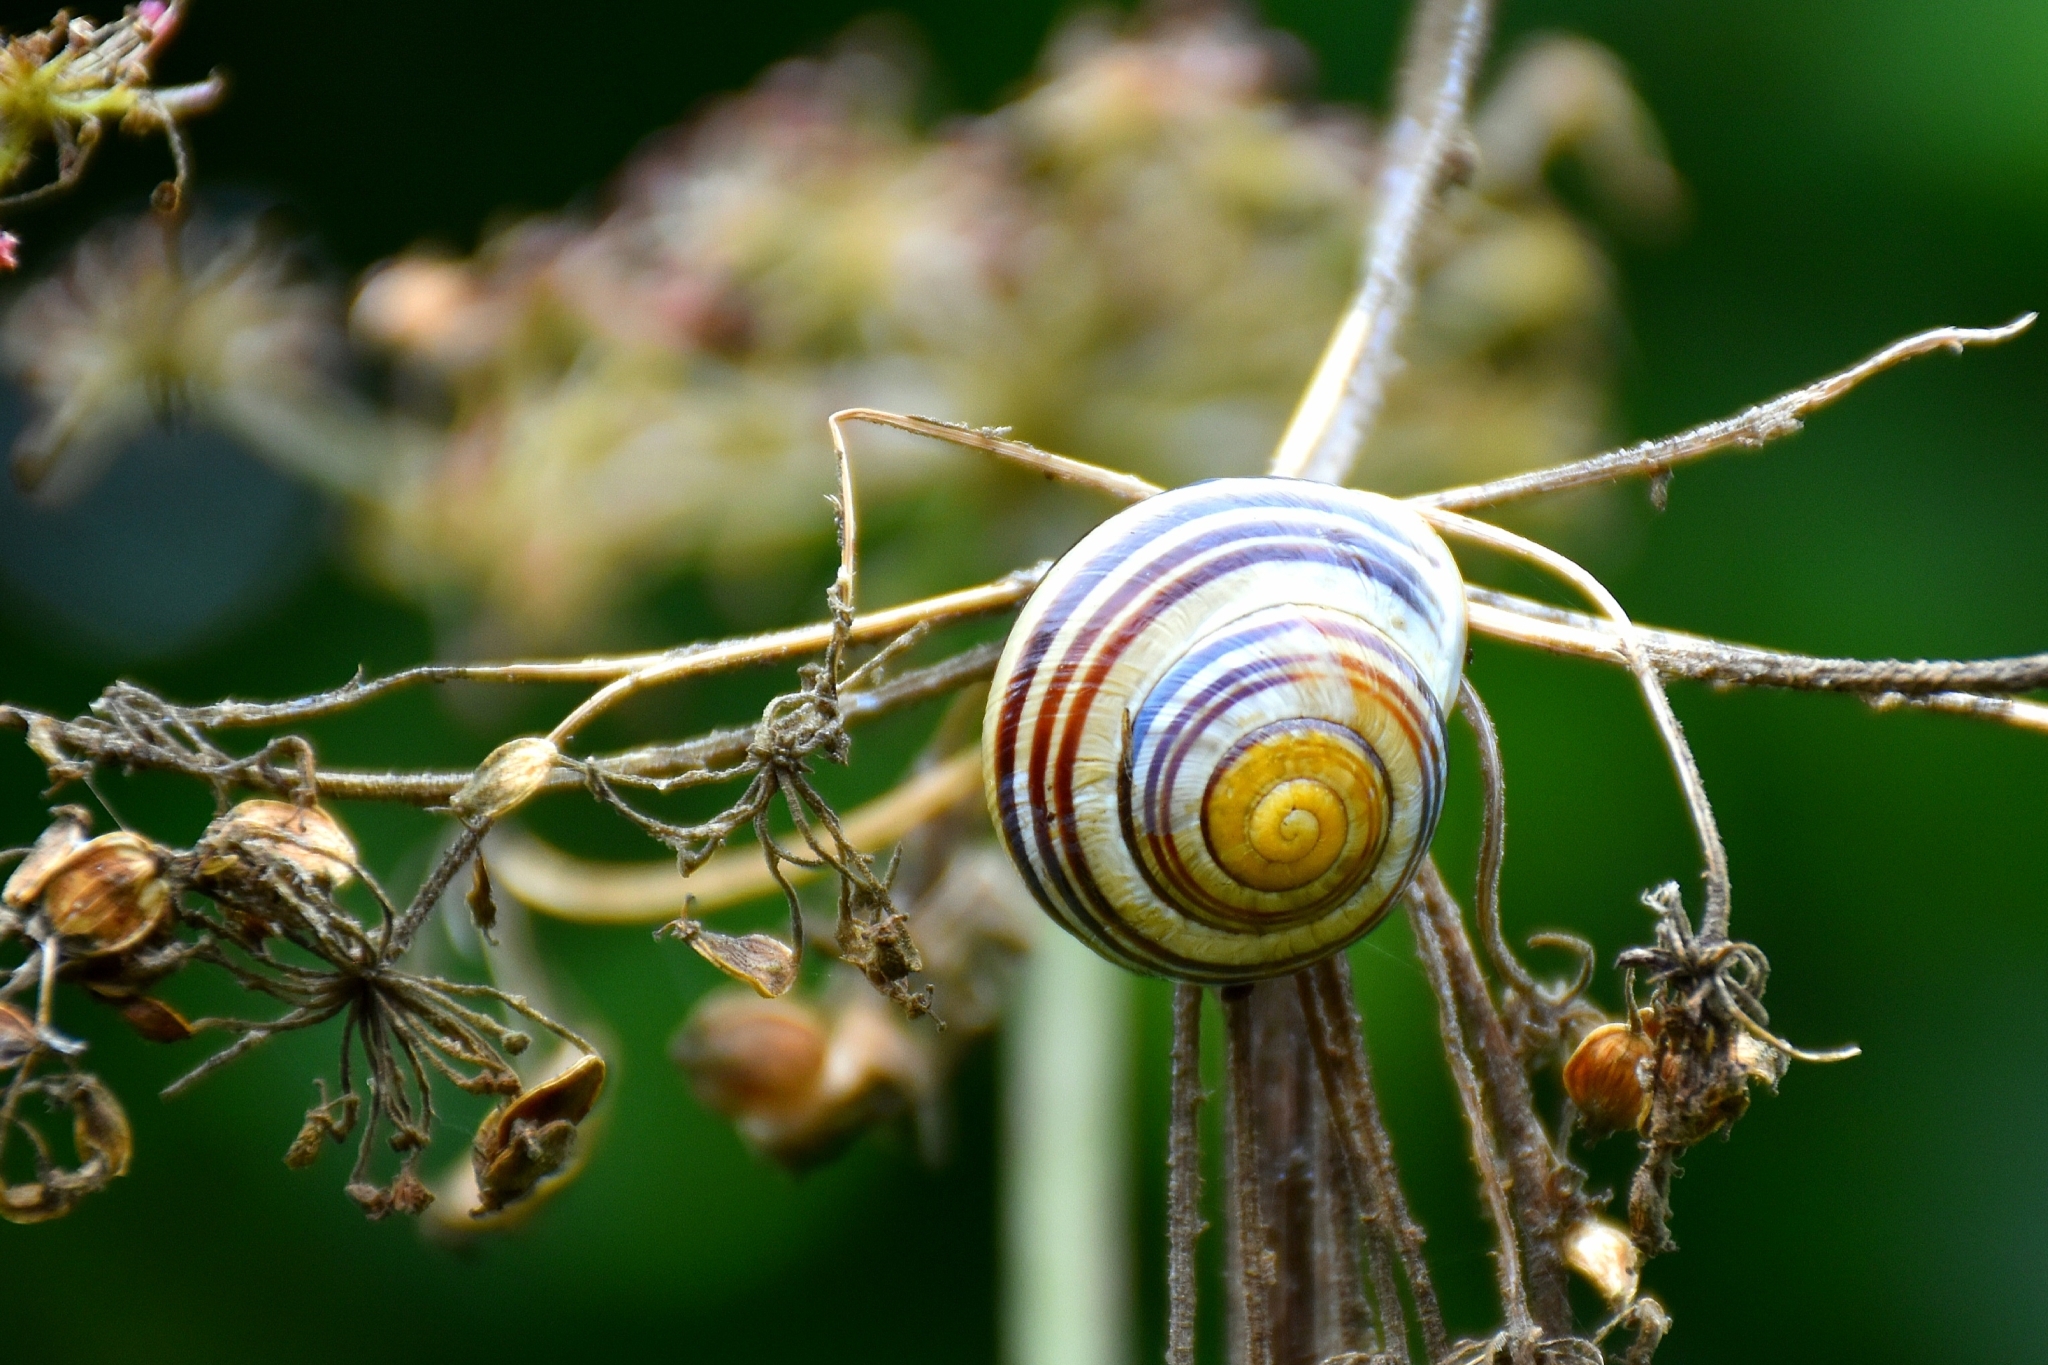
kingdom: Animalia
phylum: Mollusca
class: Gastropoda
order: Stylommatophora
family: Helicidae
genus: Cepaea
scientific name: Cepaea hortensis
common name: White-lip gardensnail
